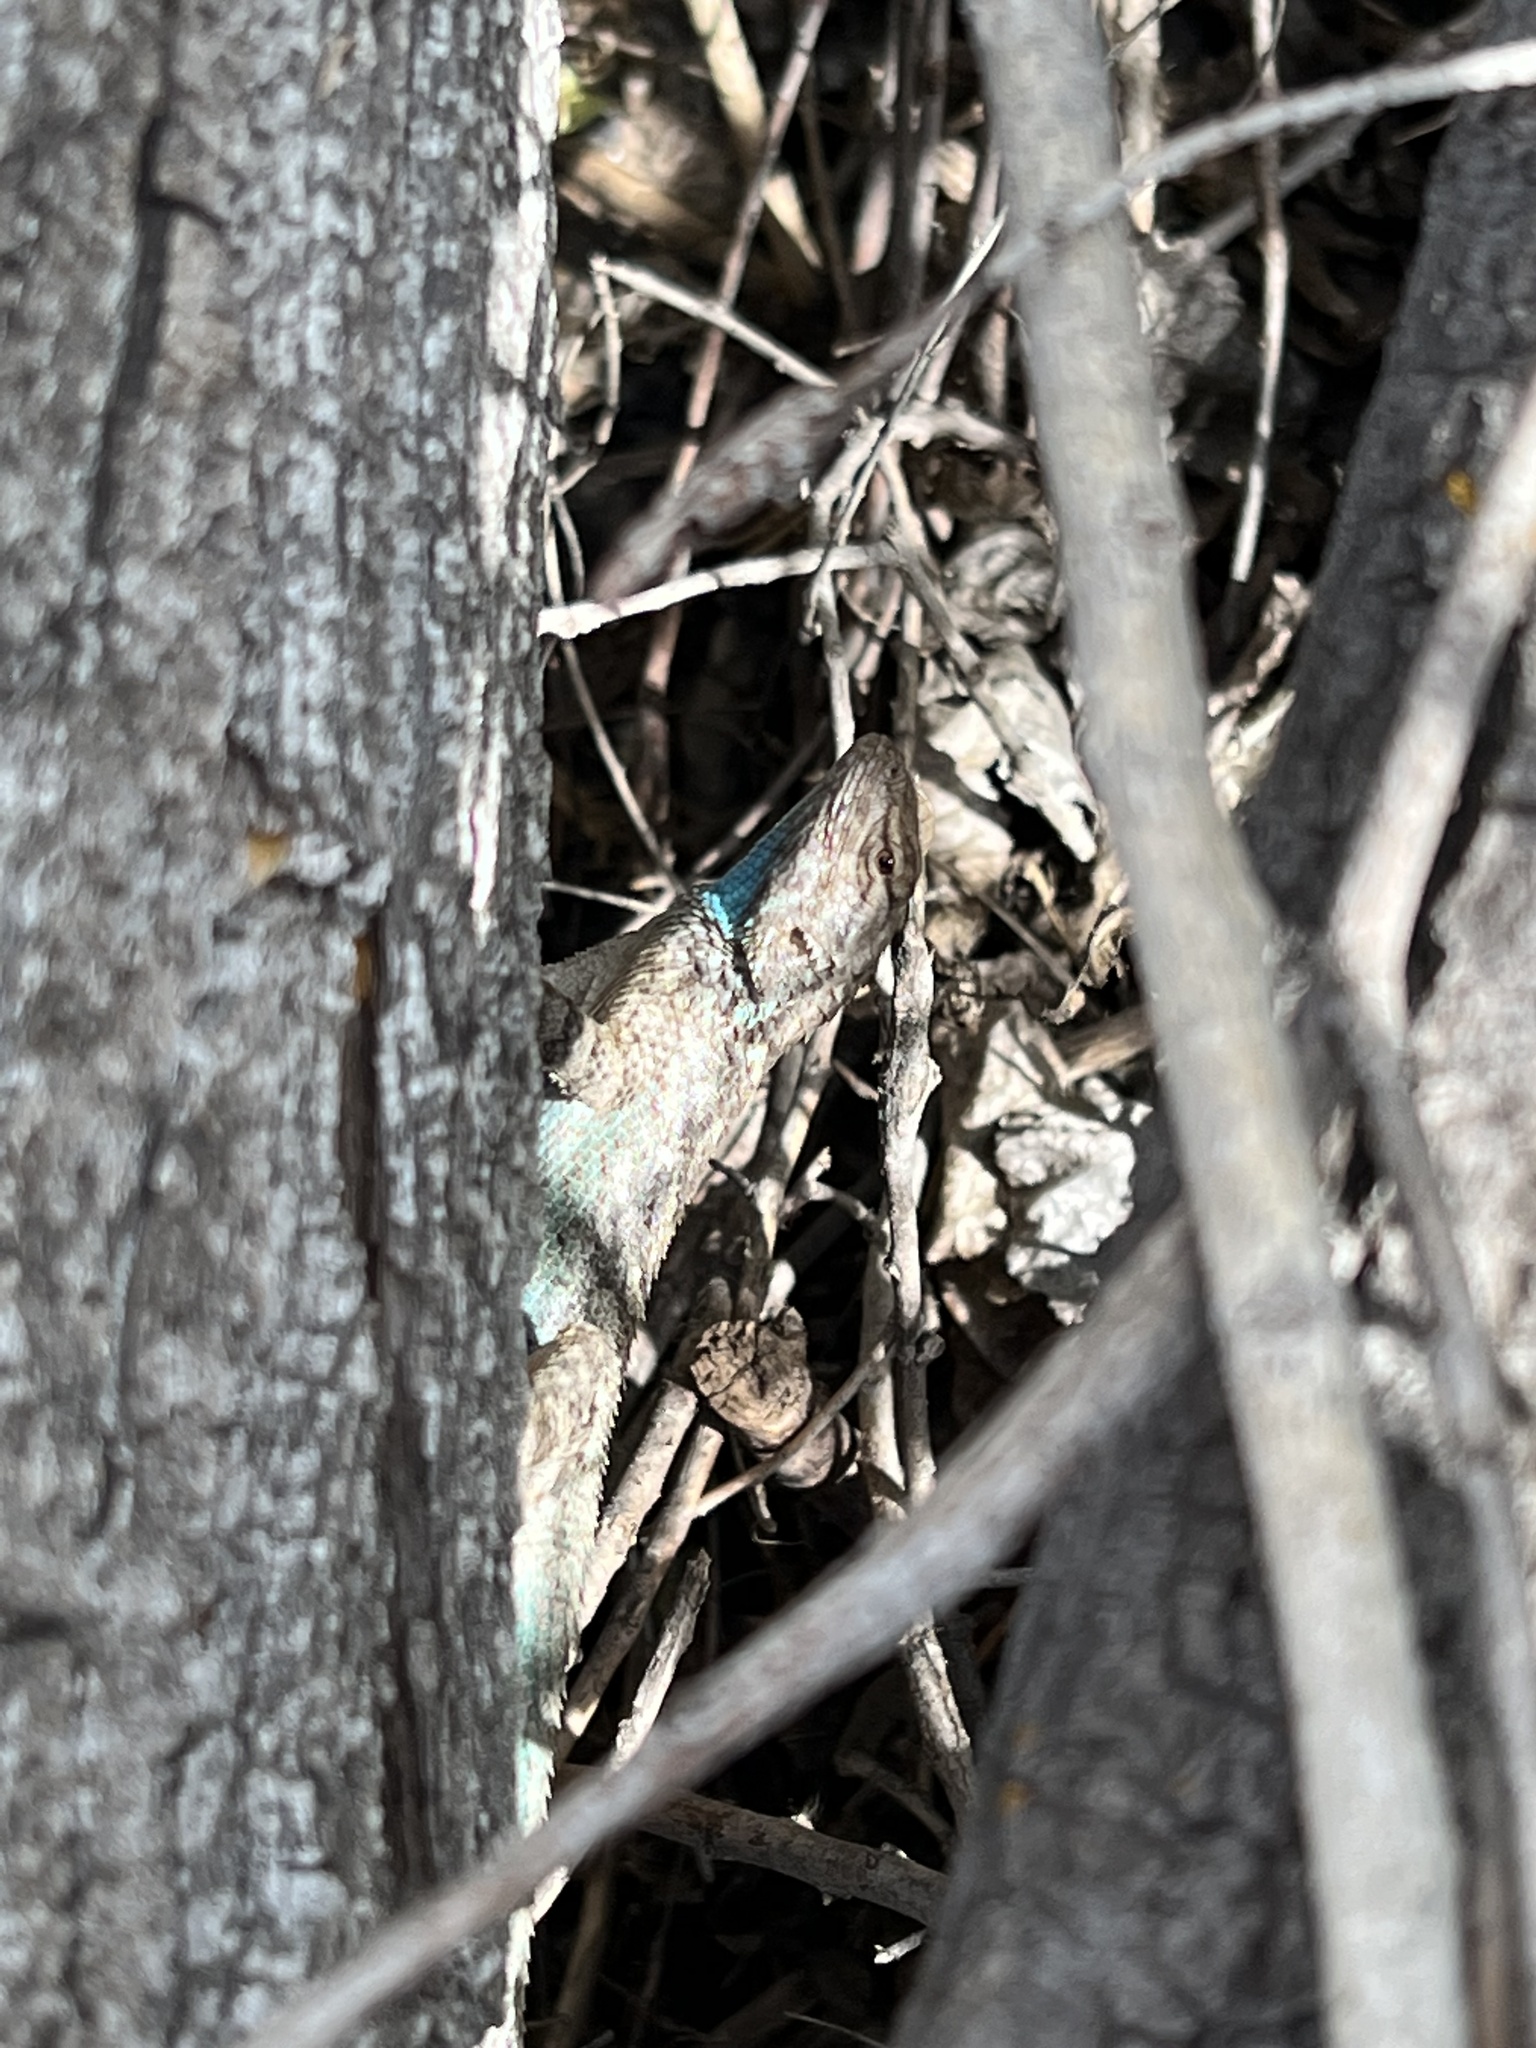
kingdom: Animalia
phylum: Chordata
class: Squamata
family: Phrynosomatidae
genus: Sceloporus
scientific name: Sceloporus clarkii
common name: Clark's spiny lizard
